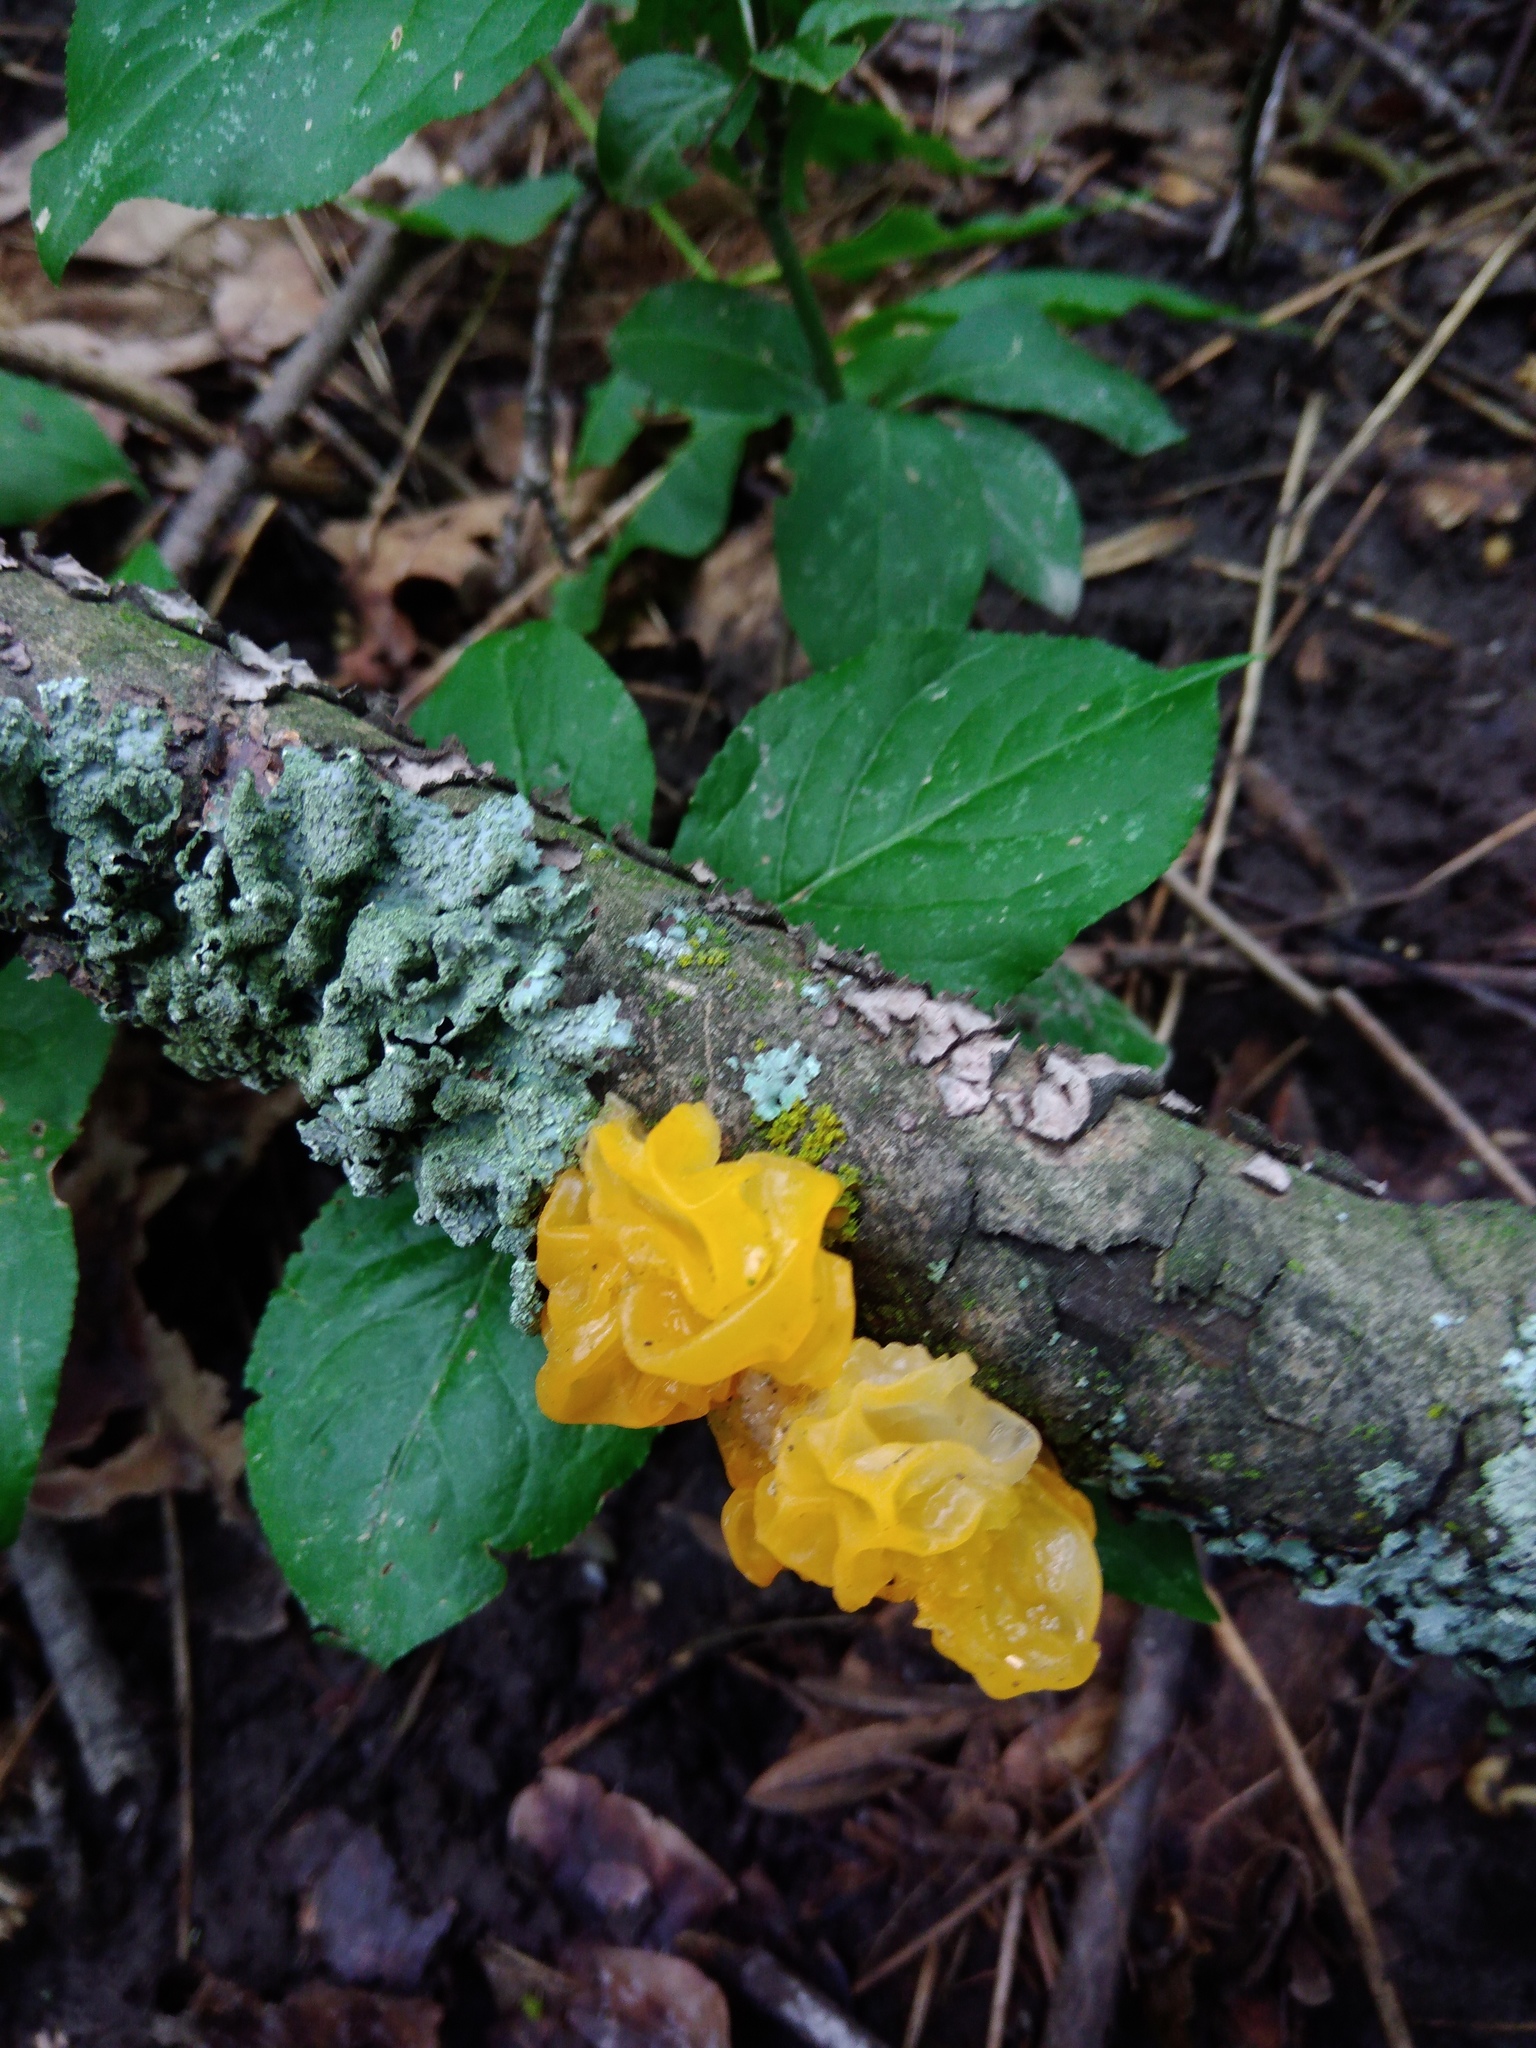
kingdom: Fungi
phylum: Basidiomycota
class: Tremellomycetes
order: Tremellales
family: Tremellaceae
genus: Tremella
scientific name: Tremella mesenterica
